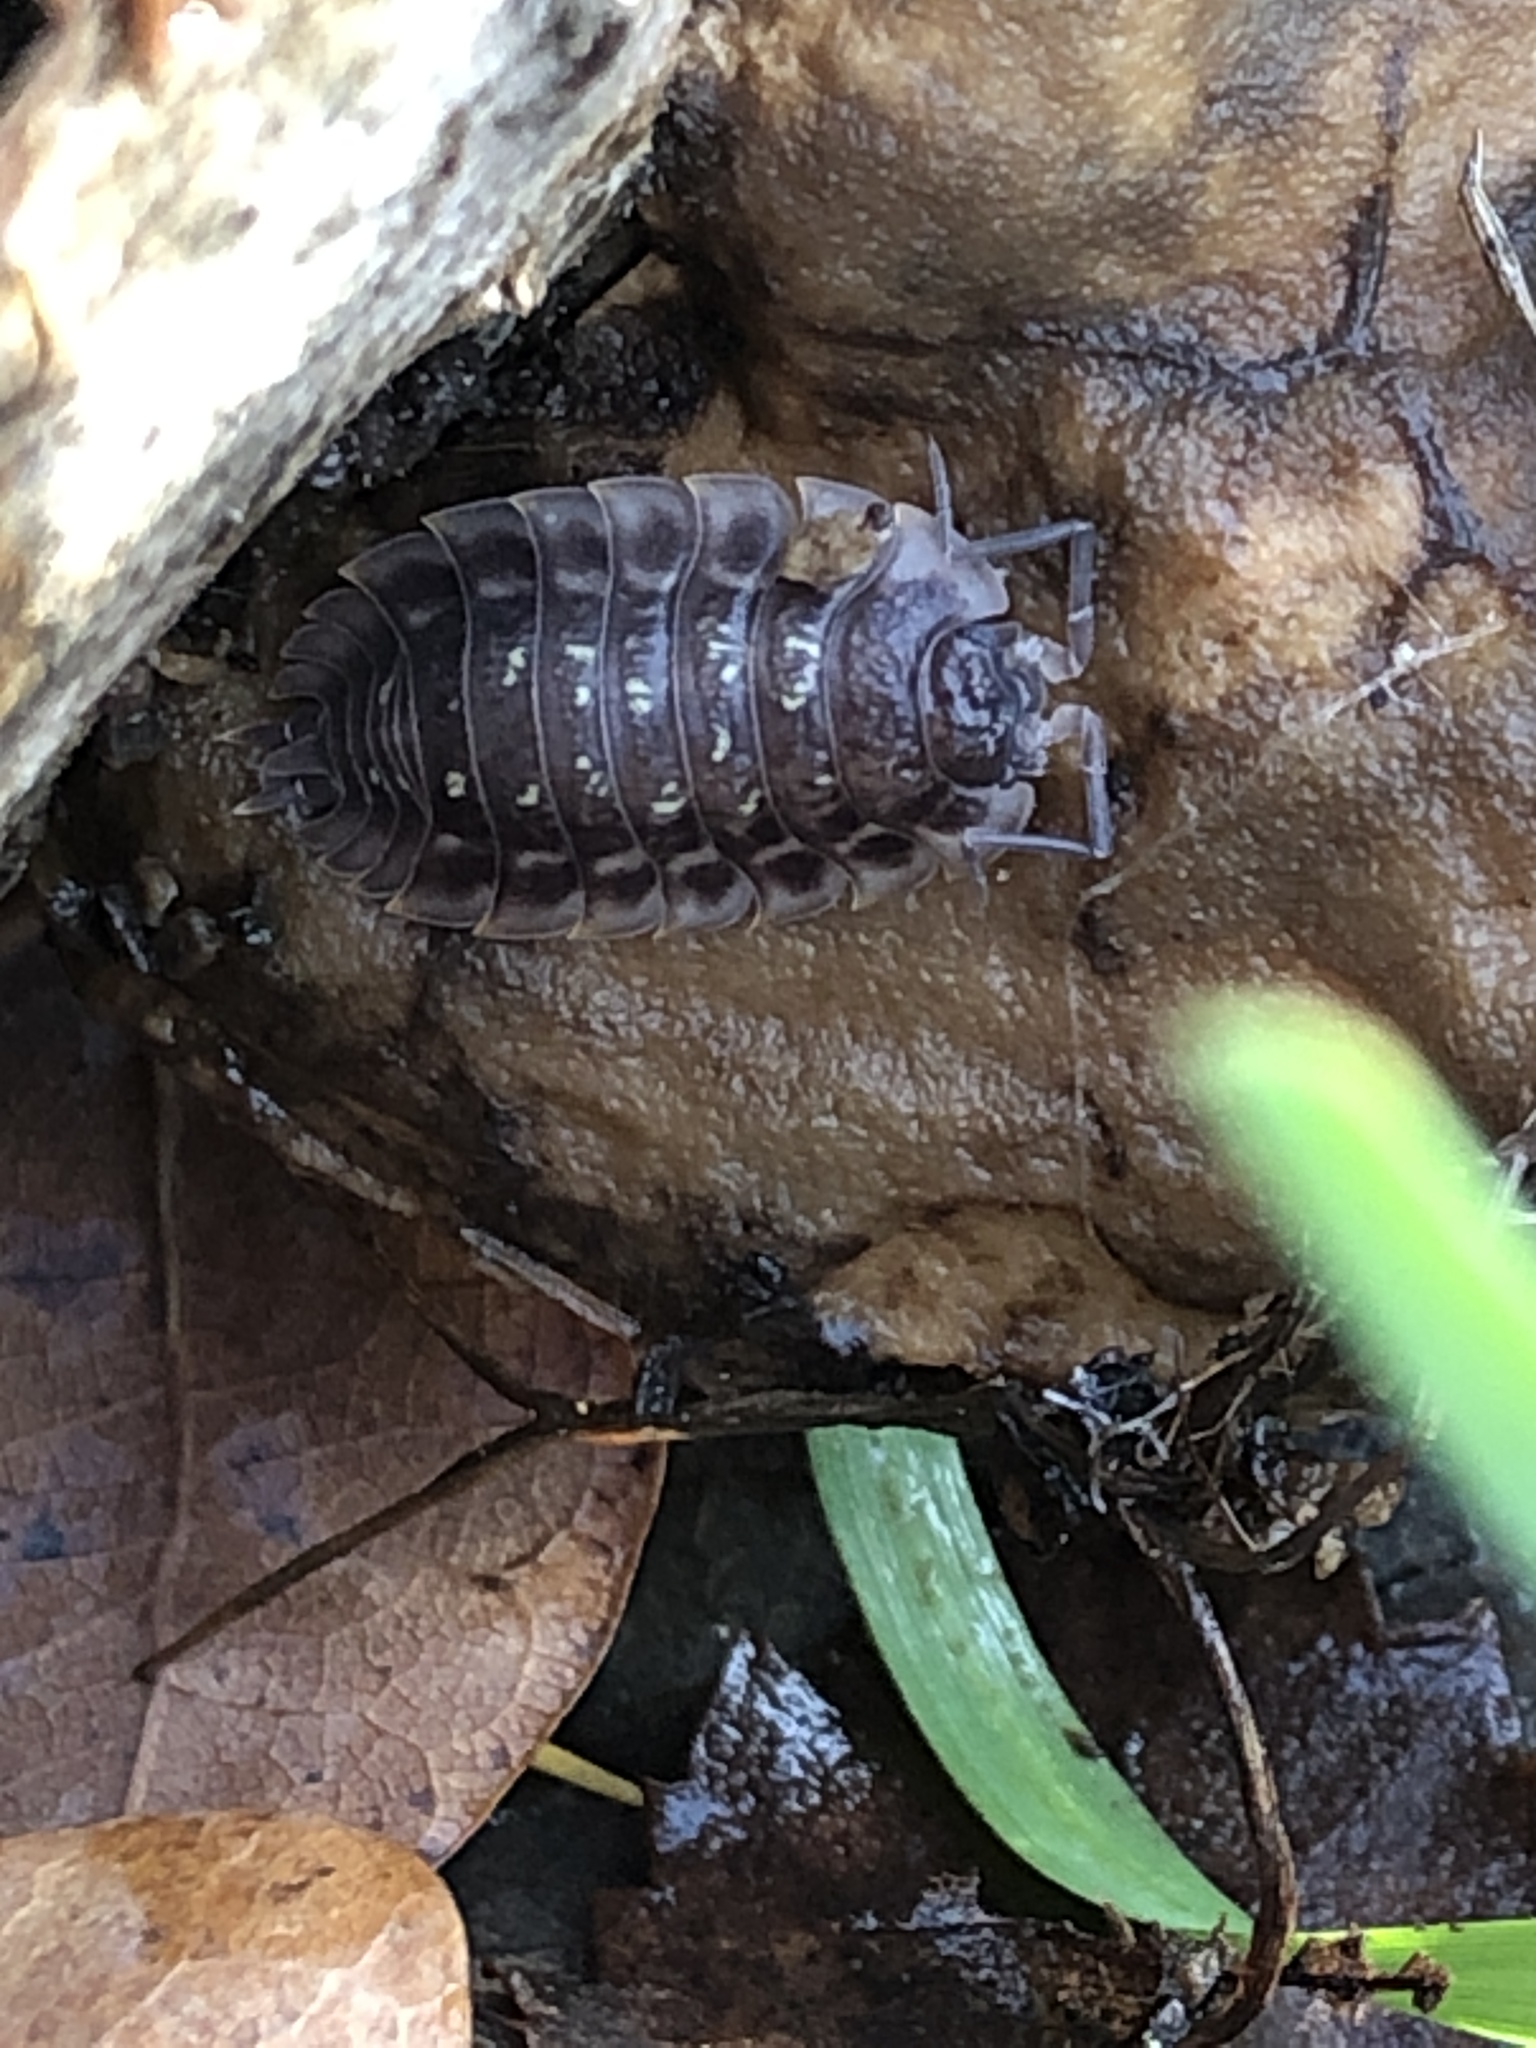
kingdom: Animalia
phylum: Arthropoda
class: Malacostraca
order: Isopoda
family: Oniscidae
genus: Oniscus
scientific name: Oniscus asellus
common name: Common shiny woodlouse
